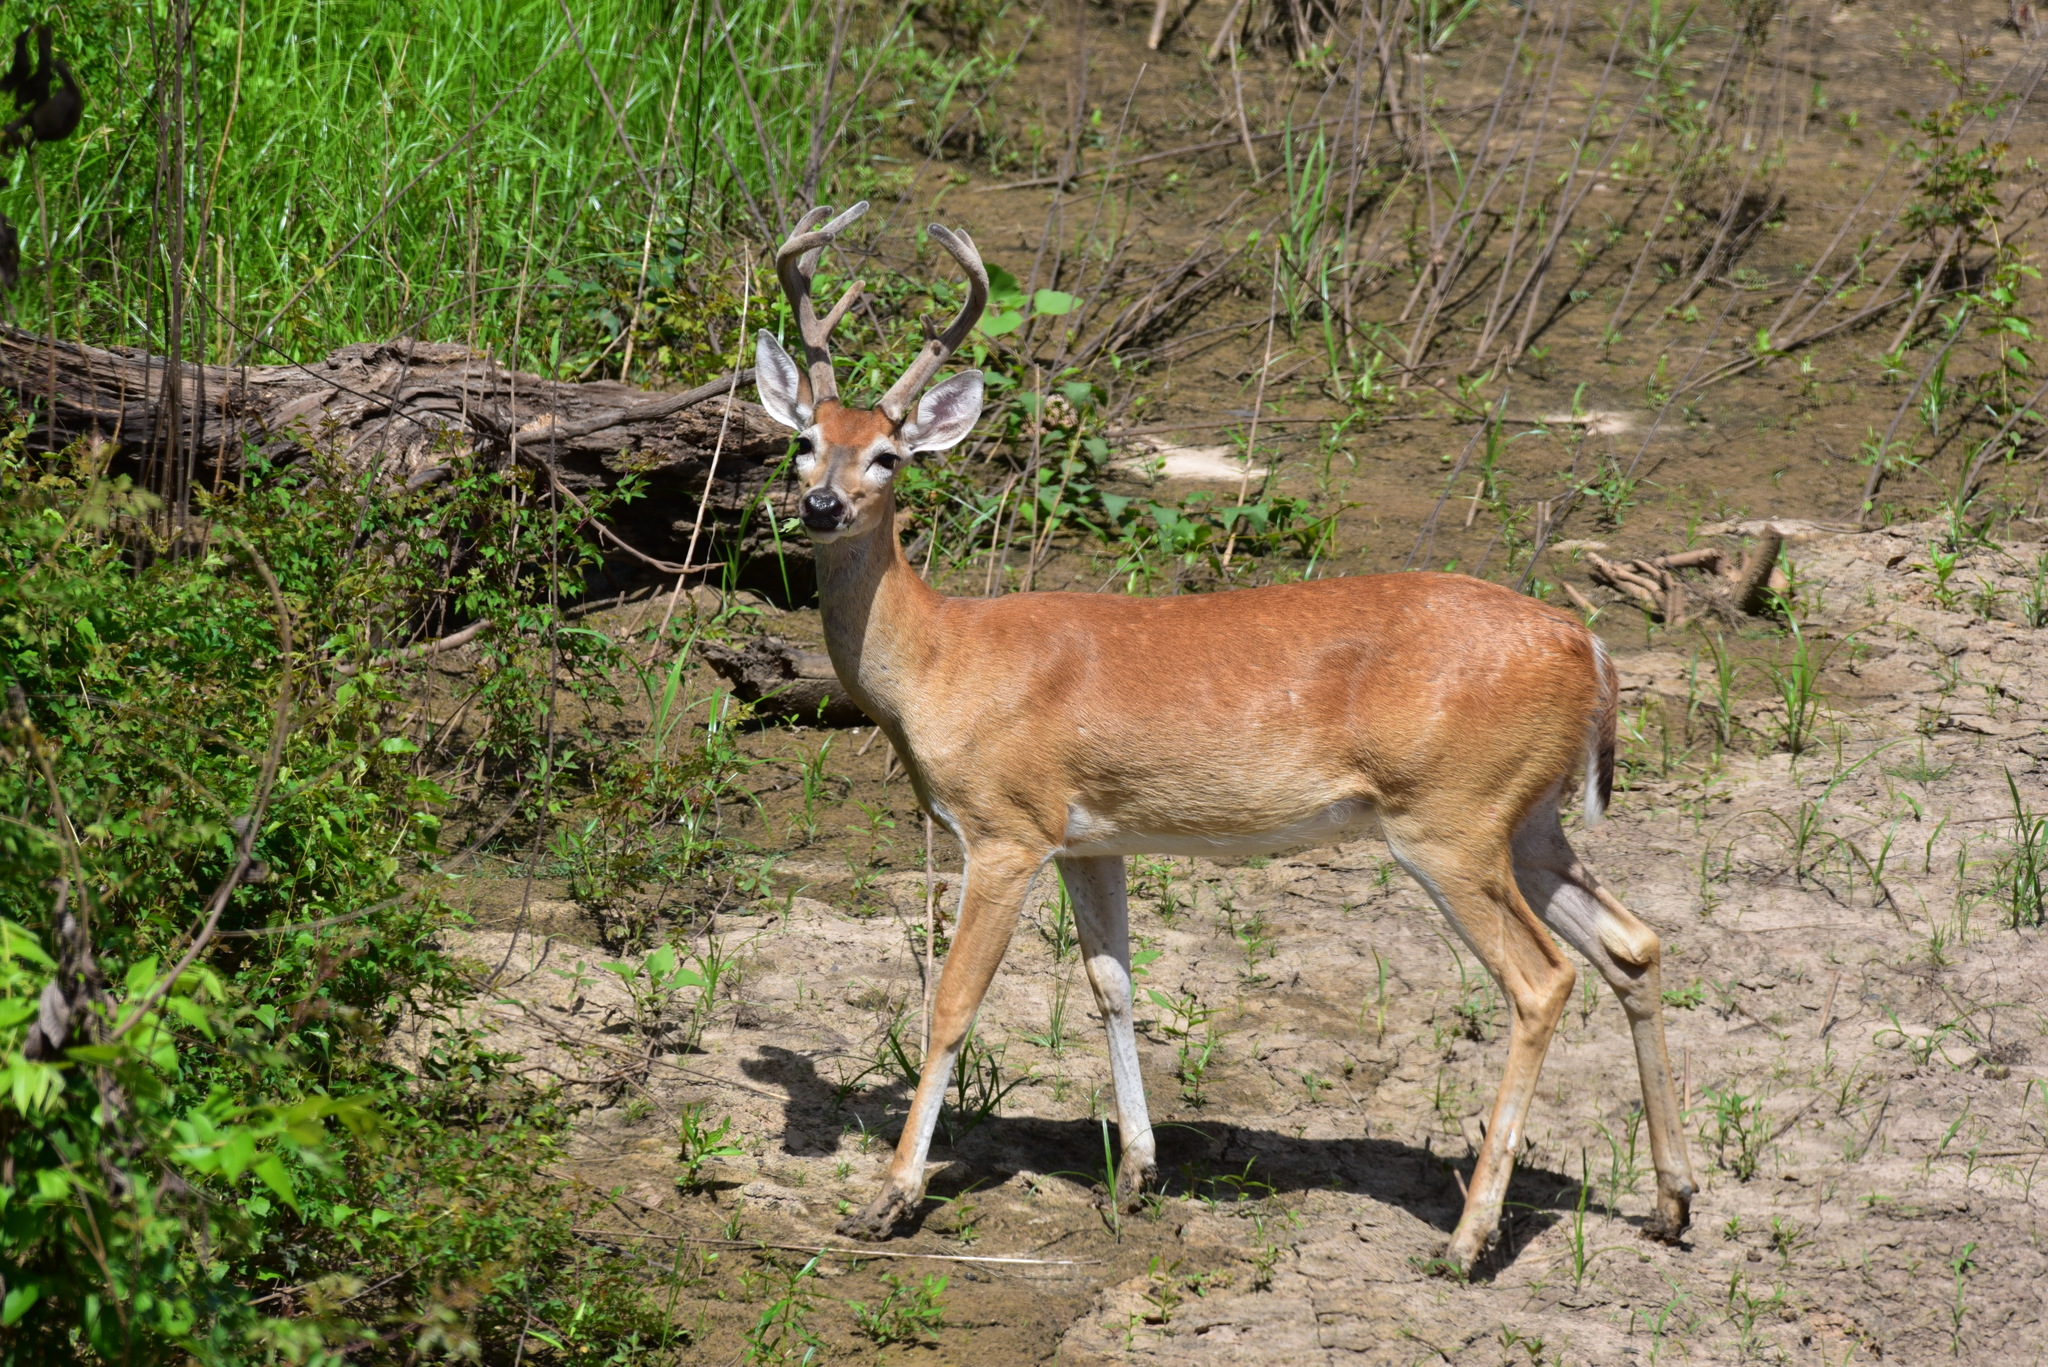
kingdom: Animalia
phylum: Chordata
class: Mammalia
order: Artiodactyla
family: Cervidae
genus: Odocoileus
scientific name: Odocoileus virginianus
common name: White-tailed deer
